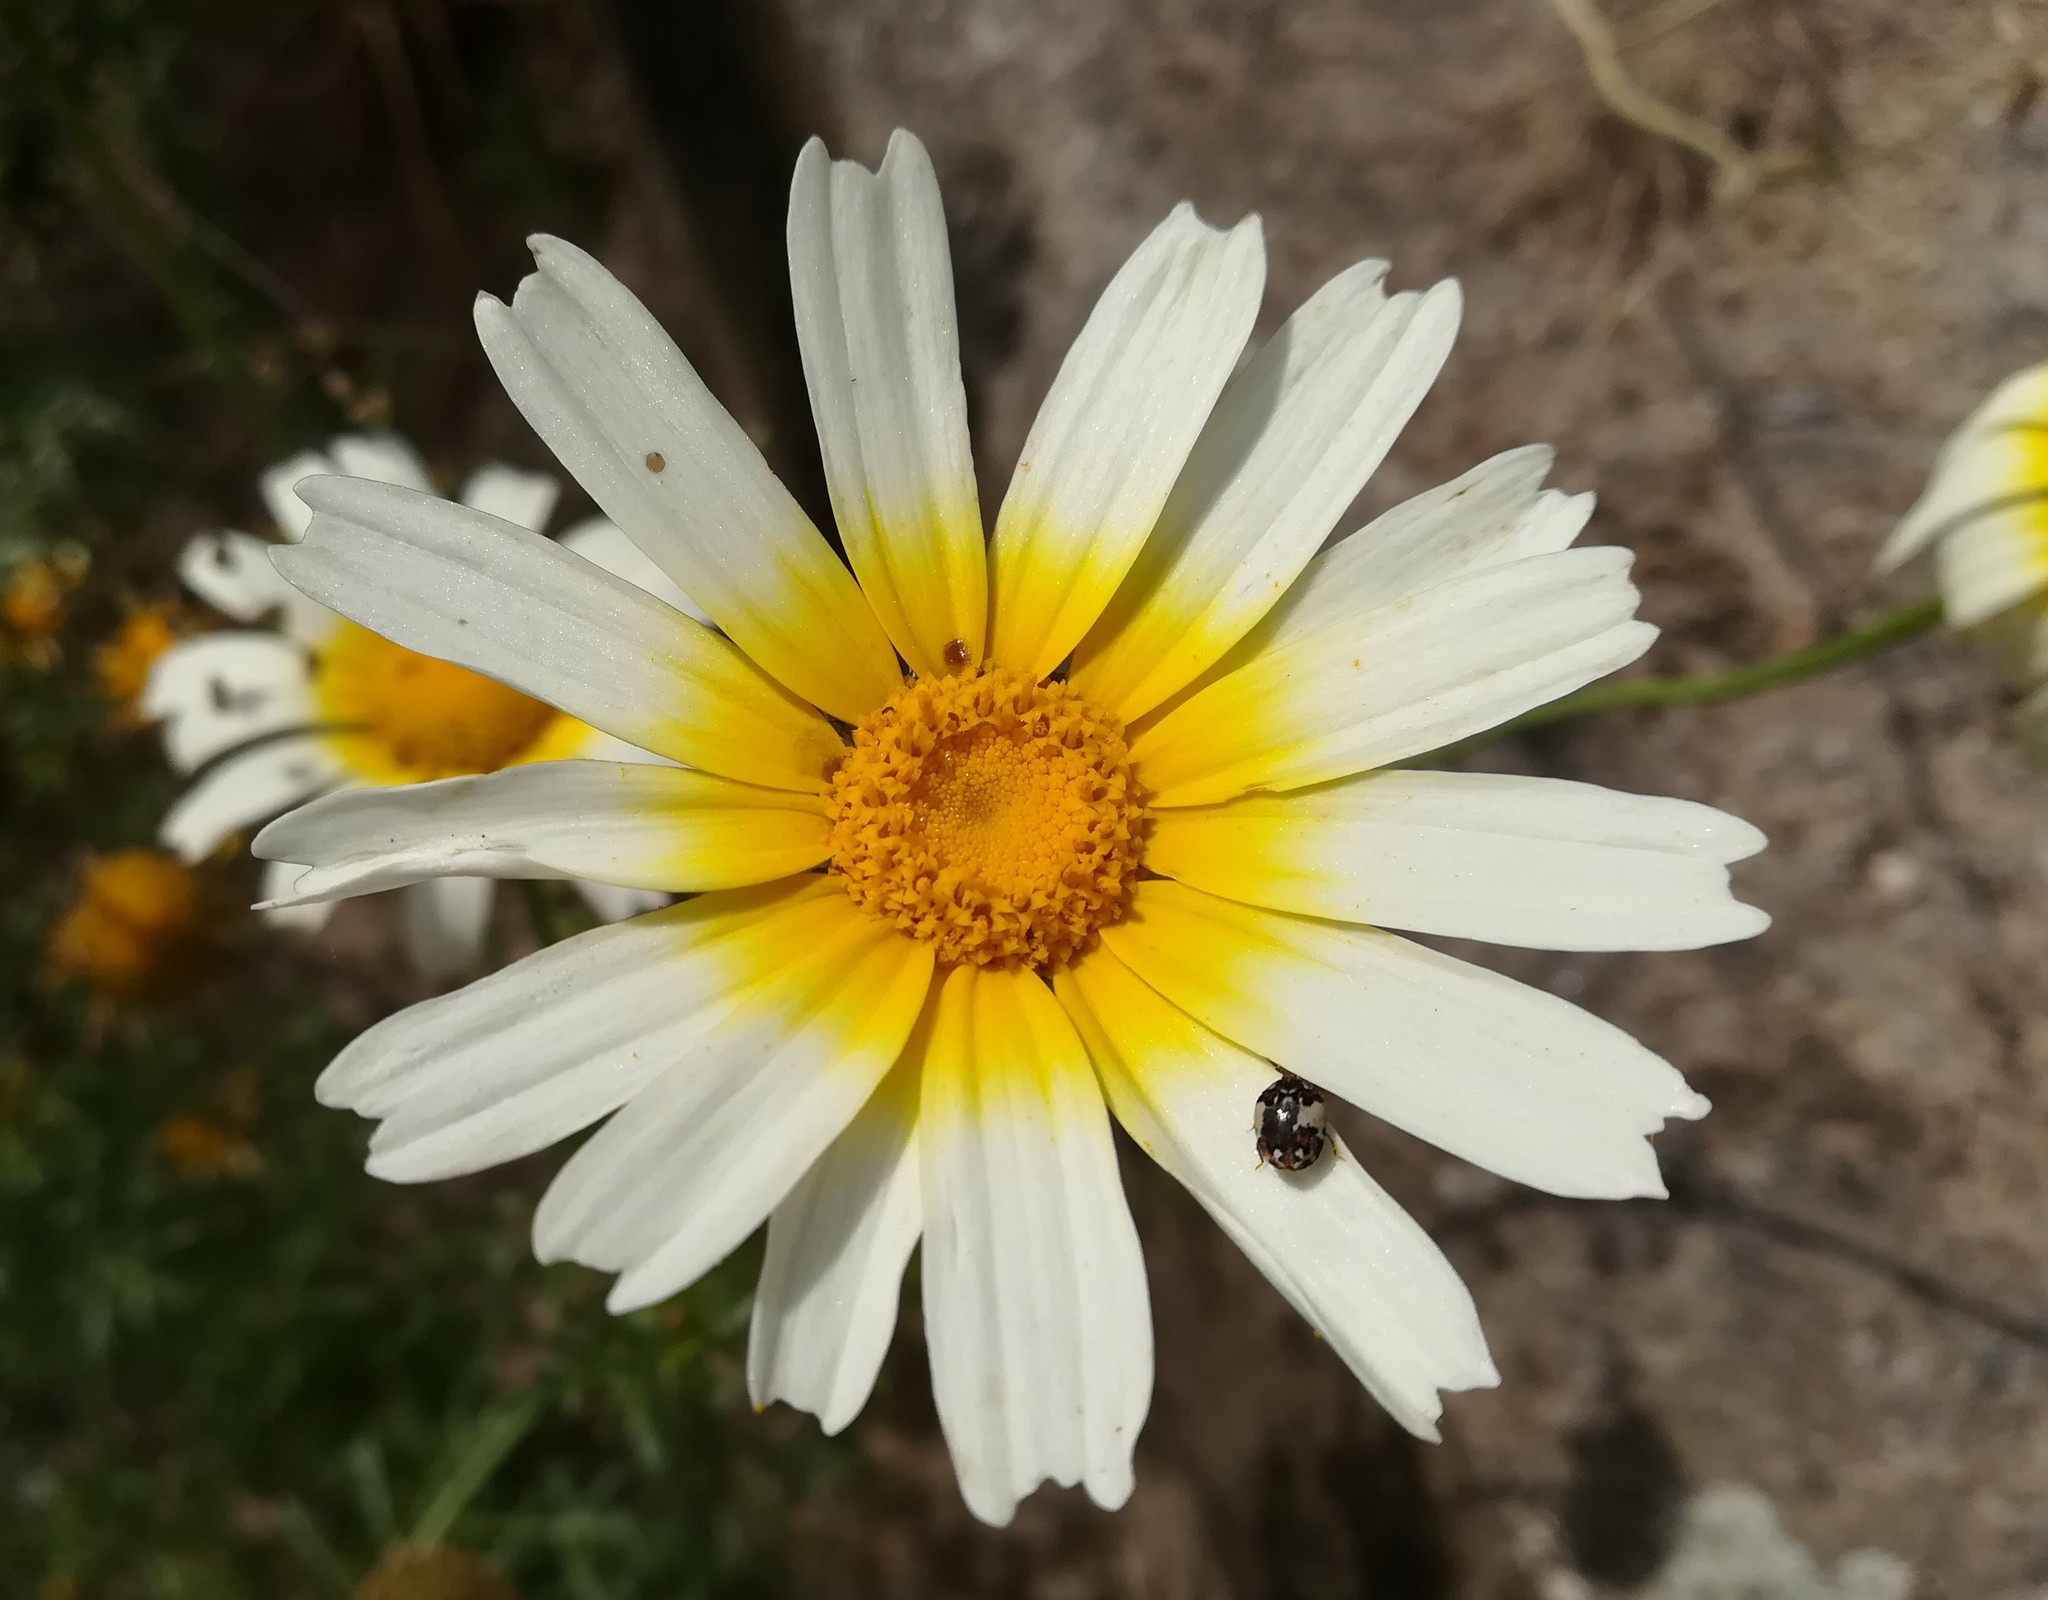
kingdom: Plantae
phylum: Tracheophyta
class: Magnoliopsida
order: Asterales
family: Asteraceae
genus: Glebionis
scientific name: Glebionis coronaria
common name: Crowndaisy
